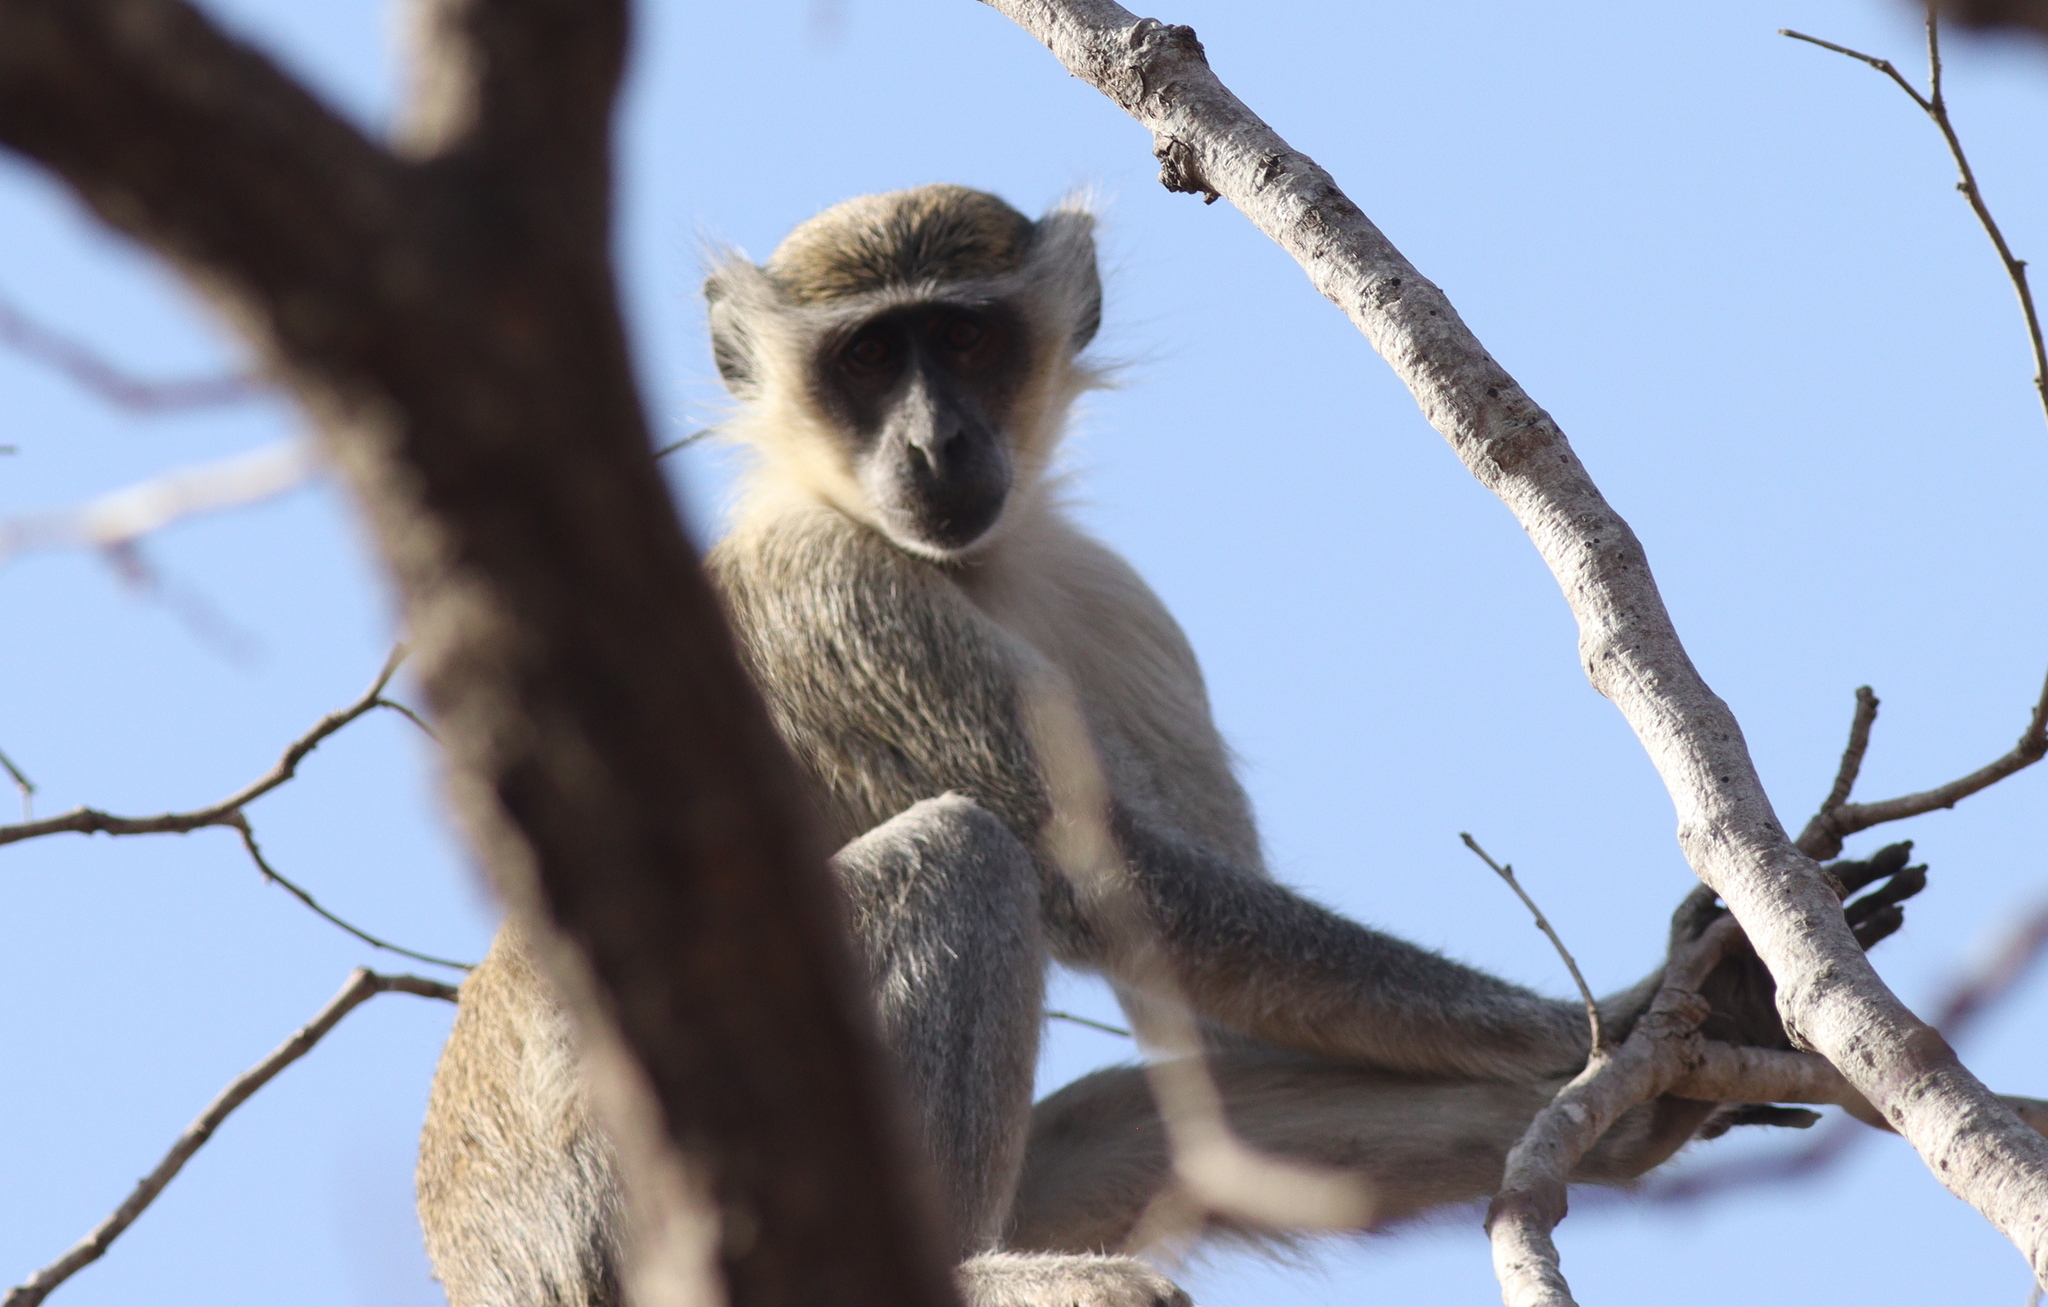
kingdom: Animalia
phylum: Chordata
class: Mammalia
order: Primates
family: Cercopithecidae
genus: Chlorocebus
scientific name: Chlorocebus sabaeus
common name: Green monkey
